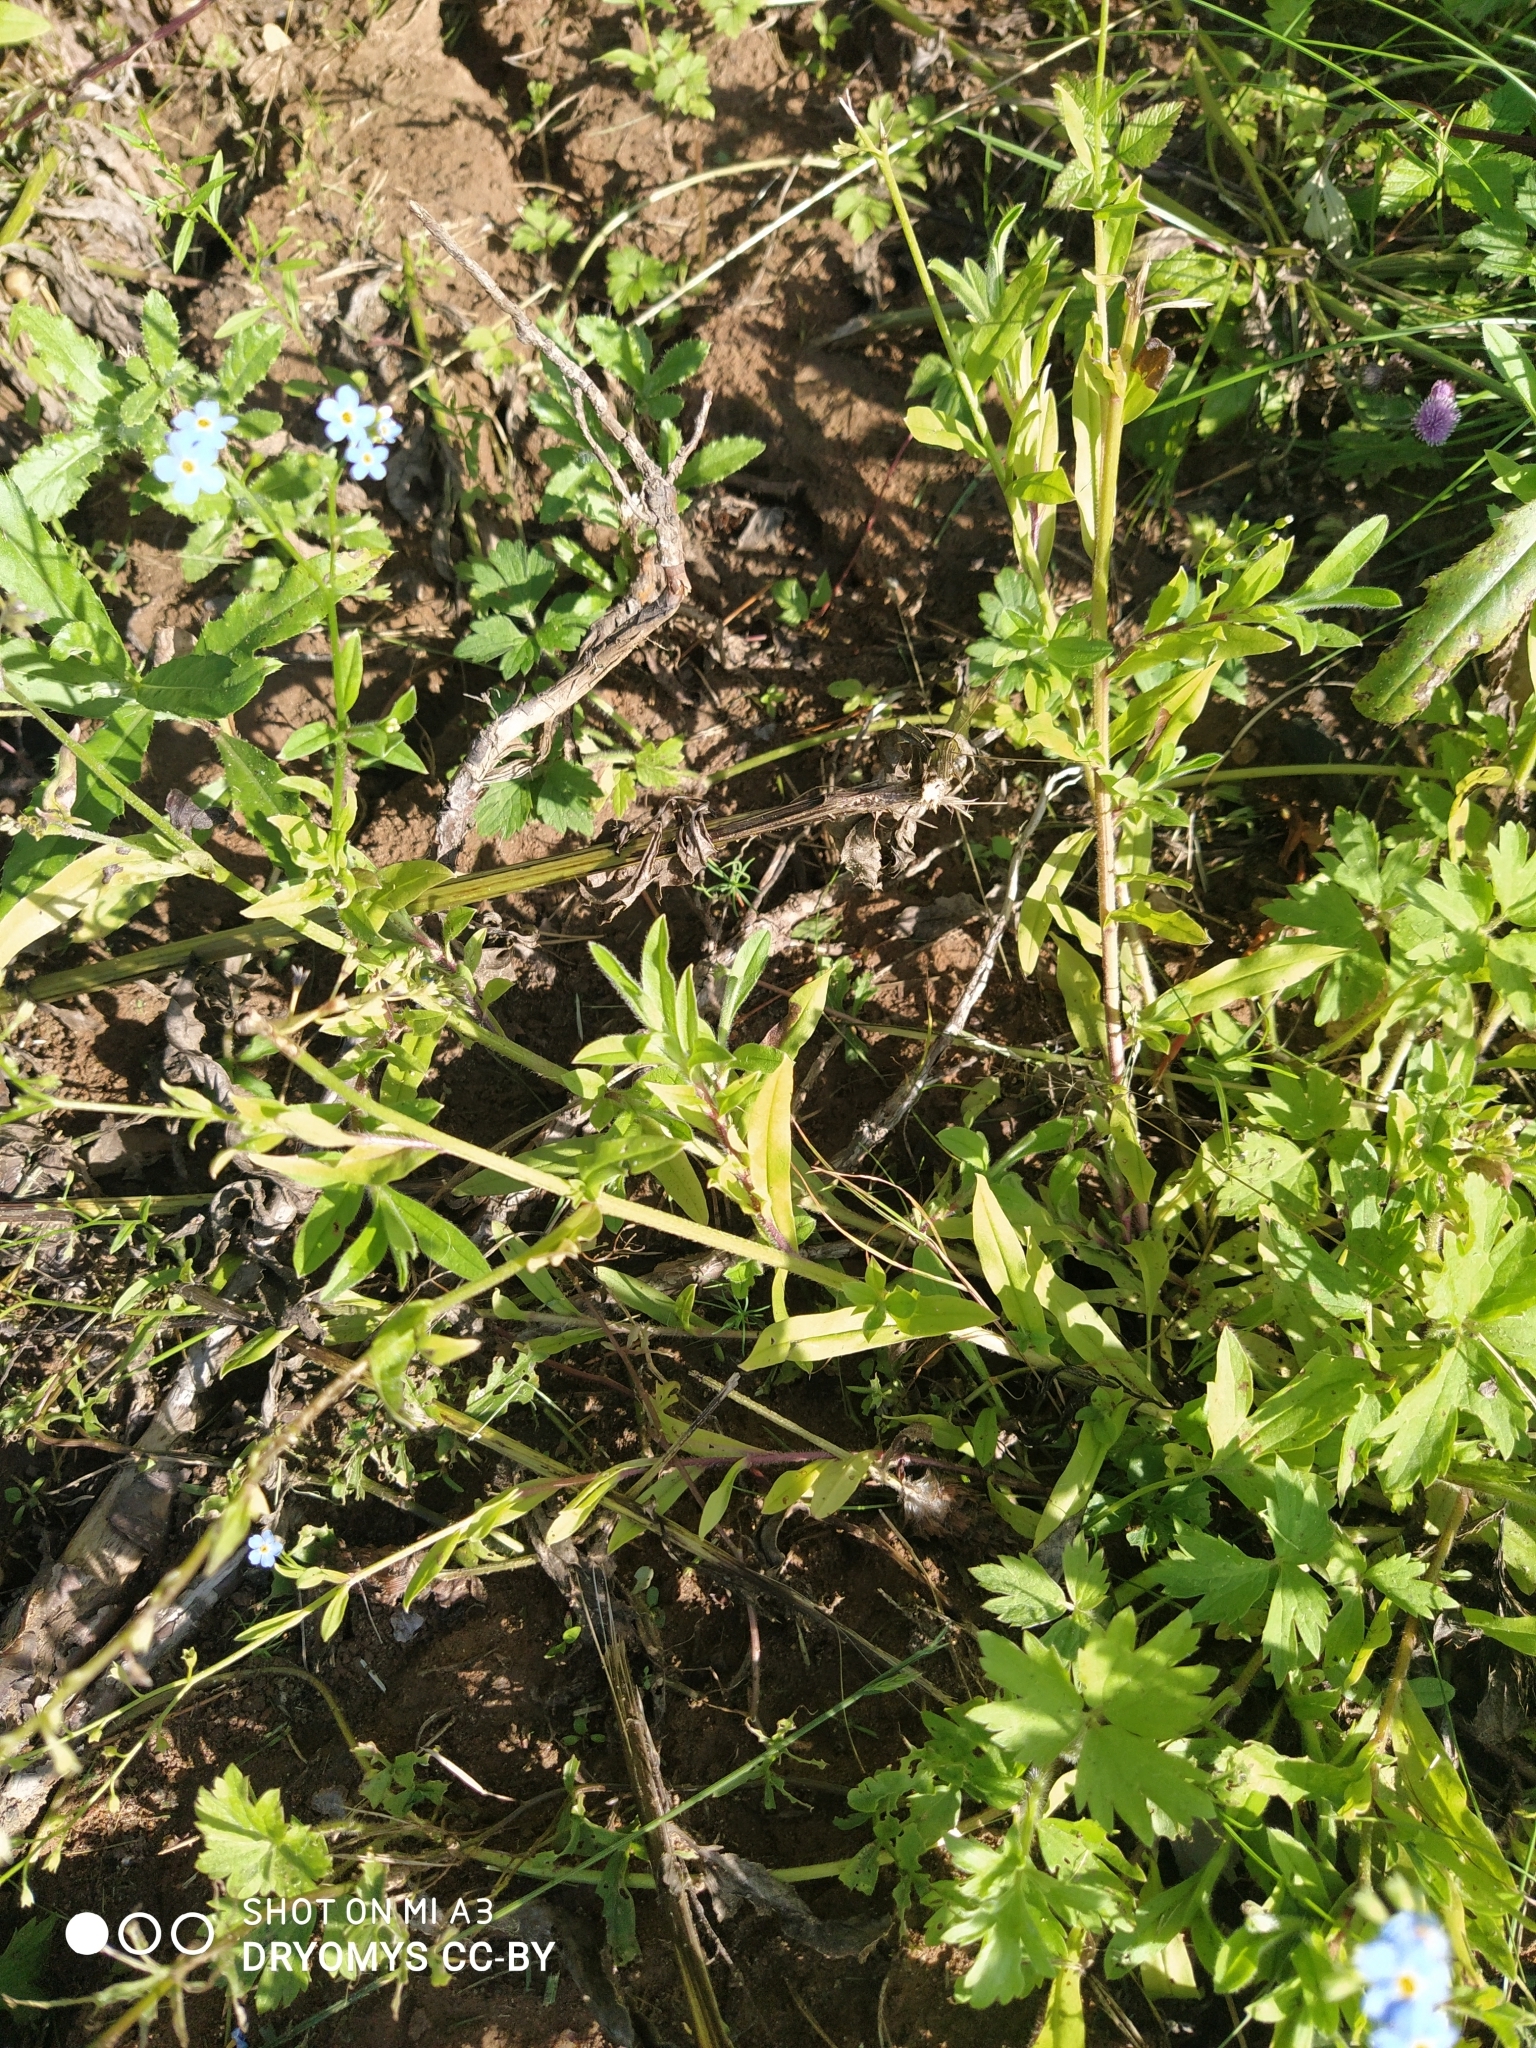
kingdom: Plantae
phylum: Tracheophyta
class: Magnoliopsida
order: Boraginales
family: Boraginaceae
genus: Myosotis
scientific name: Myosotis scorpioides
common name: Water forget-me-not
